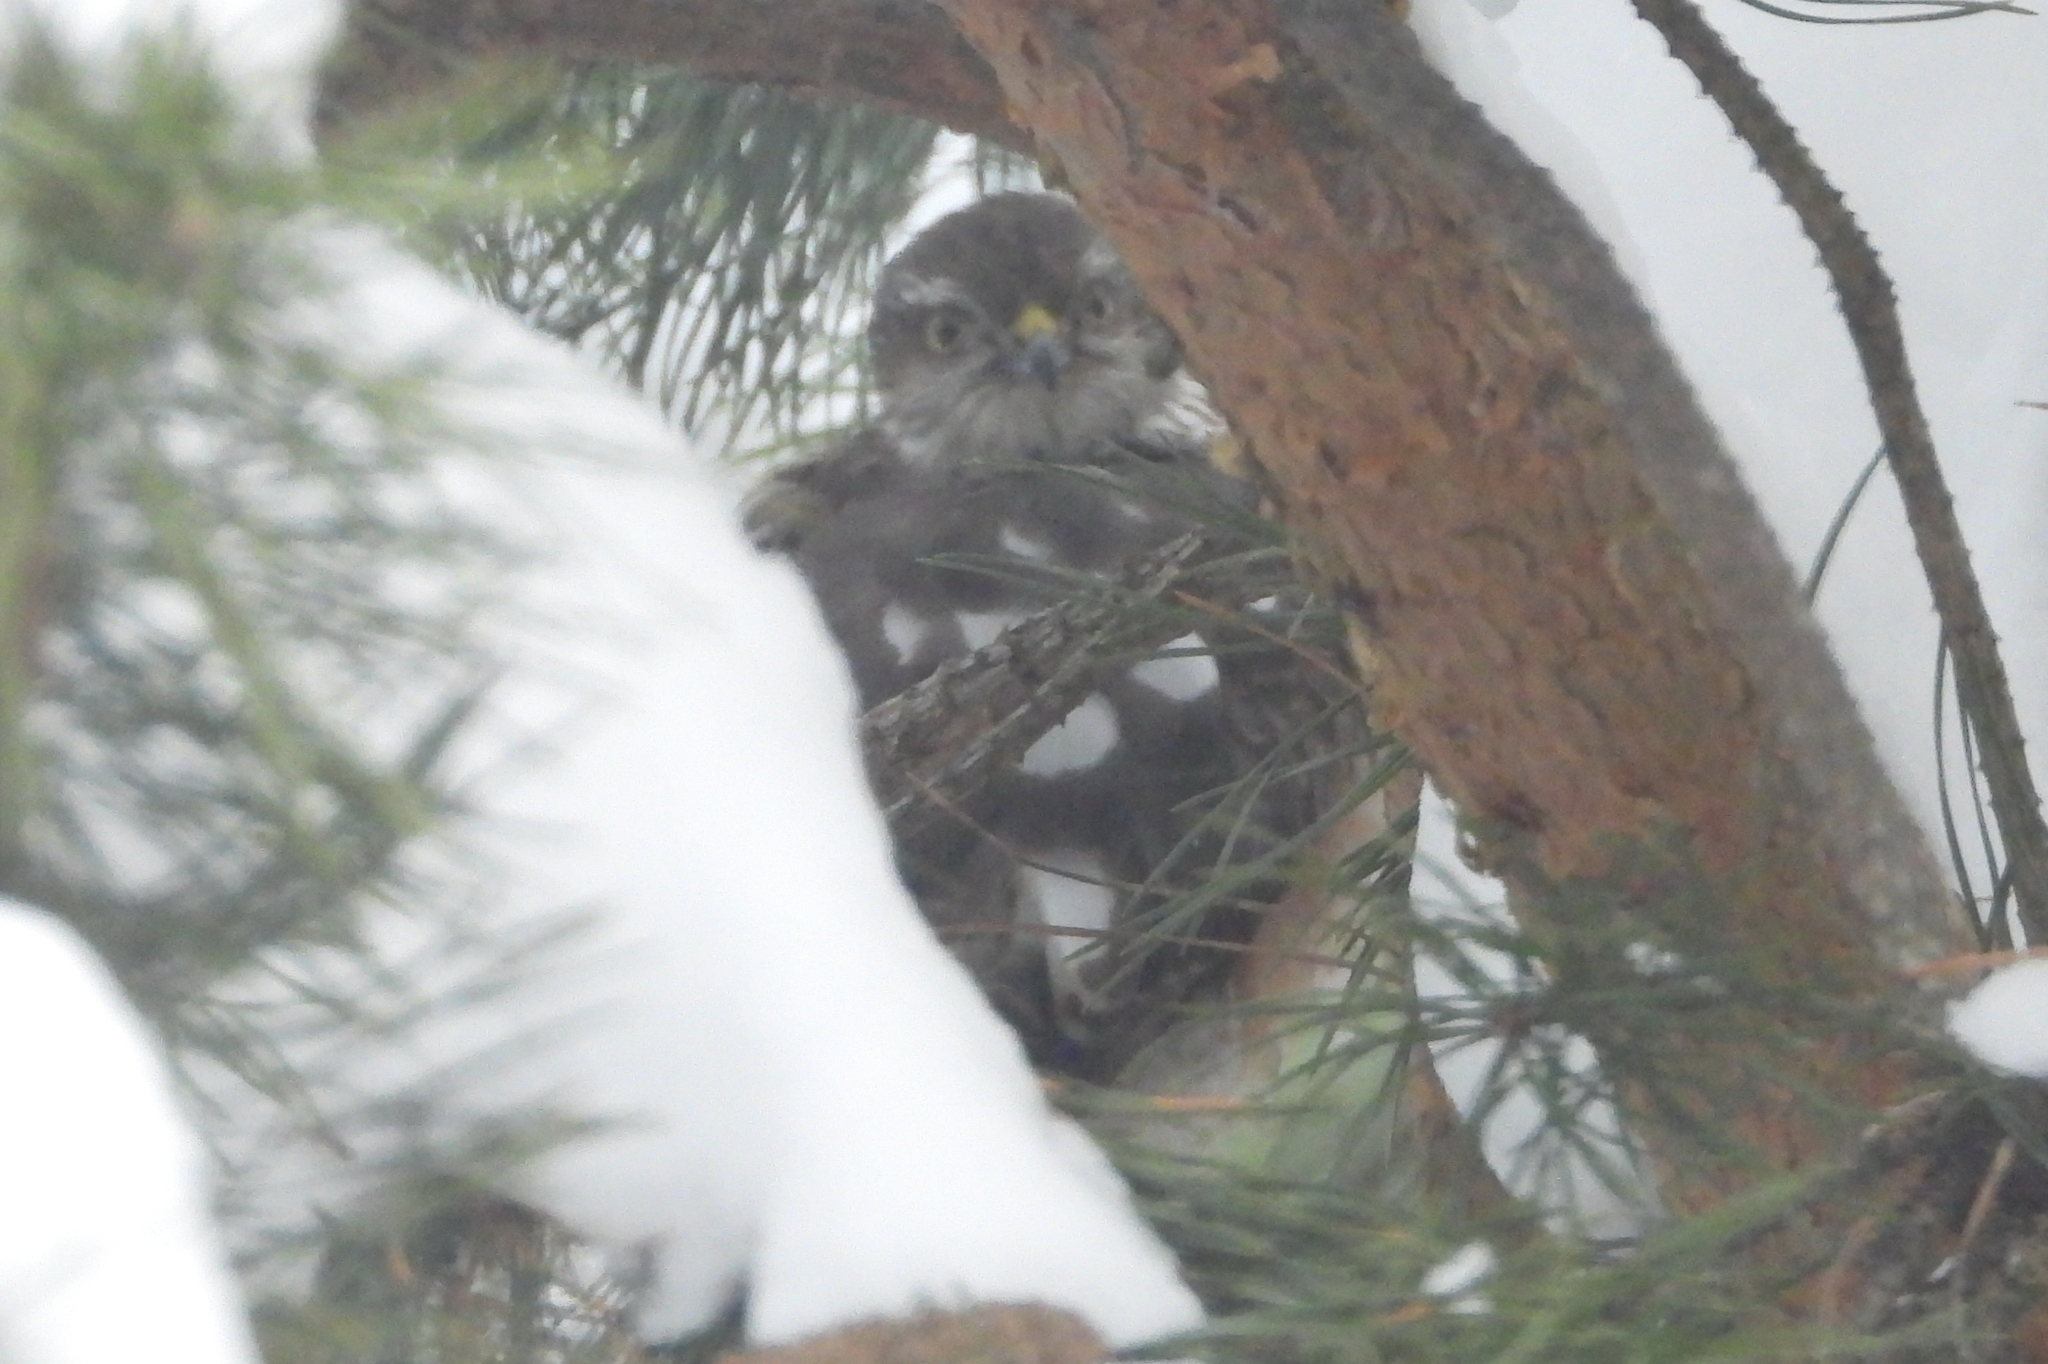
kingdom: Animalia
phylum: Chordata
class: Aves
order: Accipitriformes
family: Accipitridae
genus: Accipiter
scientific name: Accipiter nisus
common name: Eurasian sparrowhawk
